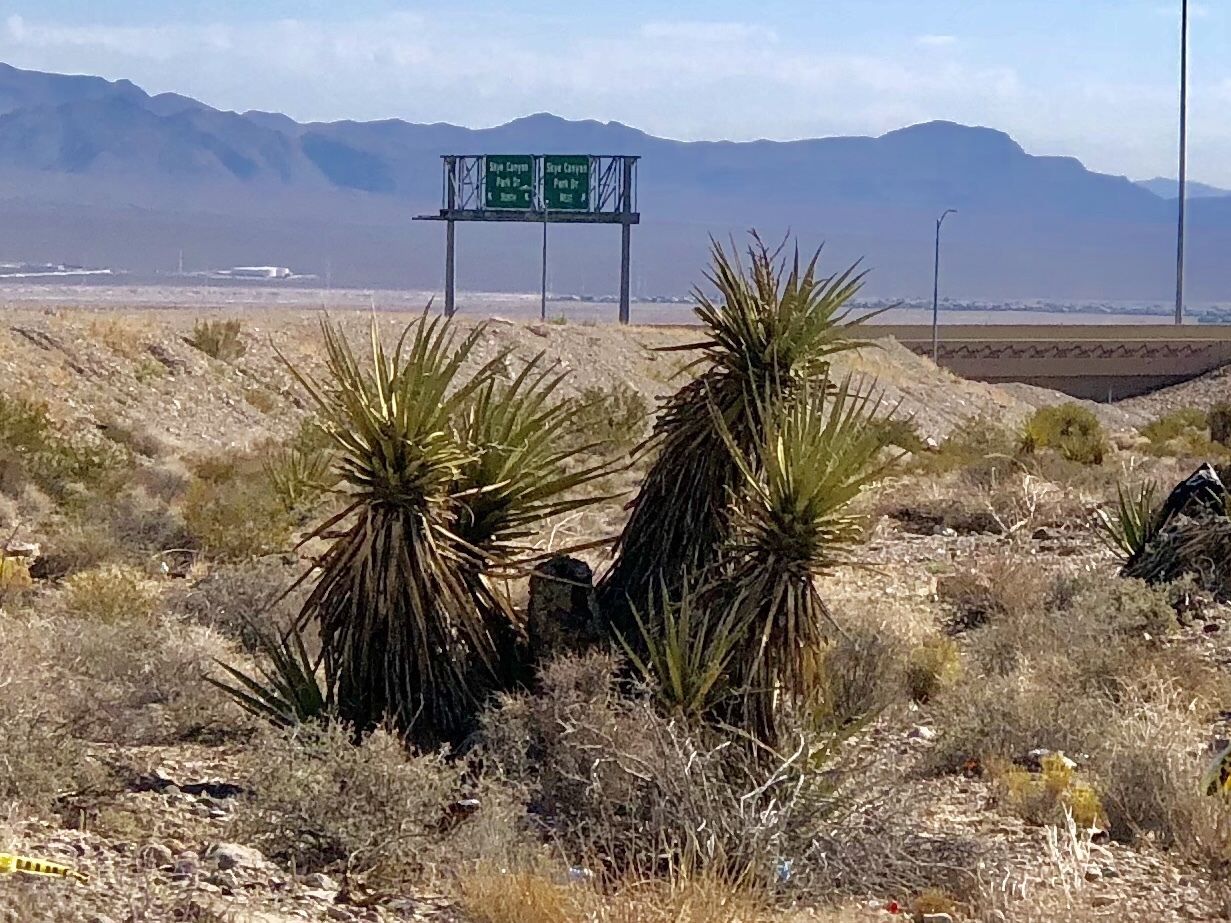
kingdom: Plantae
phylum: Tracheophyta
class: Liliopsida
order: Asparagales
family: Asparagaceae
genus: Yucca
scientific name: Yucca schidigera
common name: Mojave yucca
